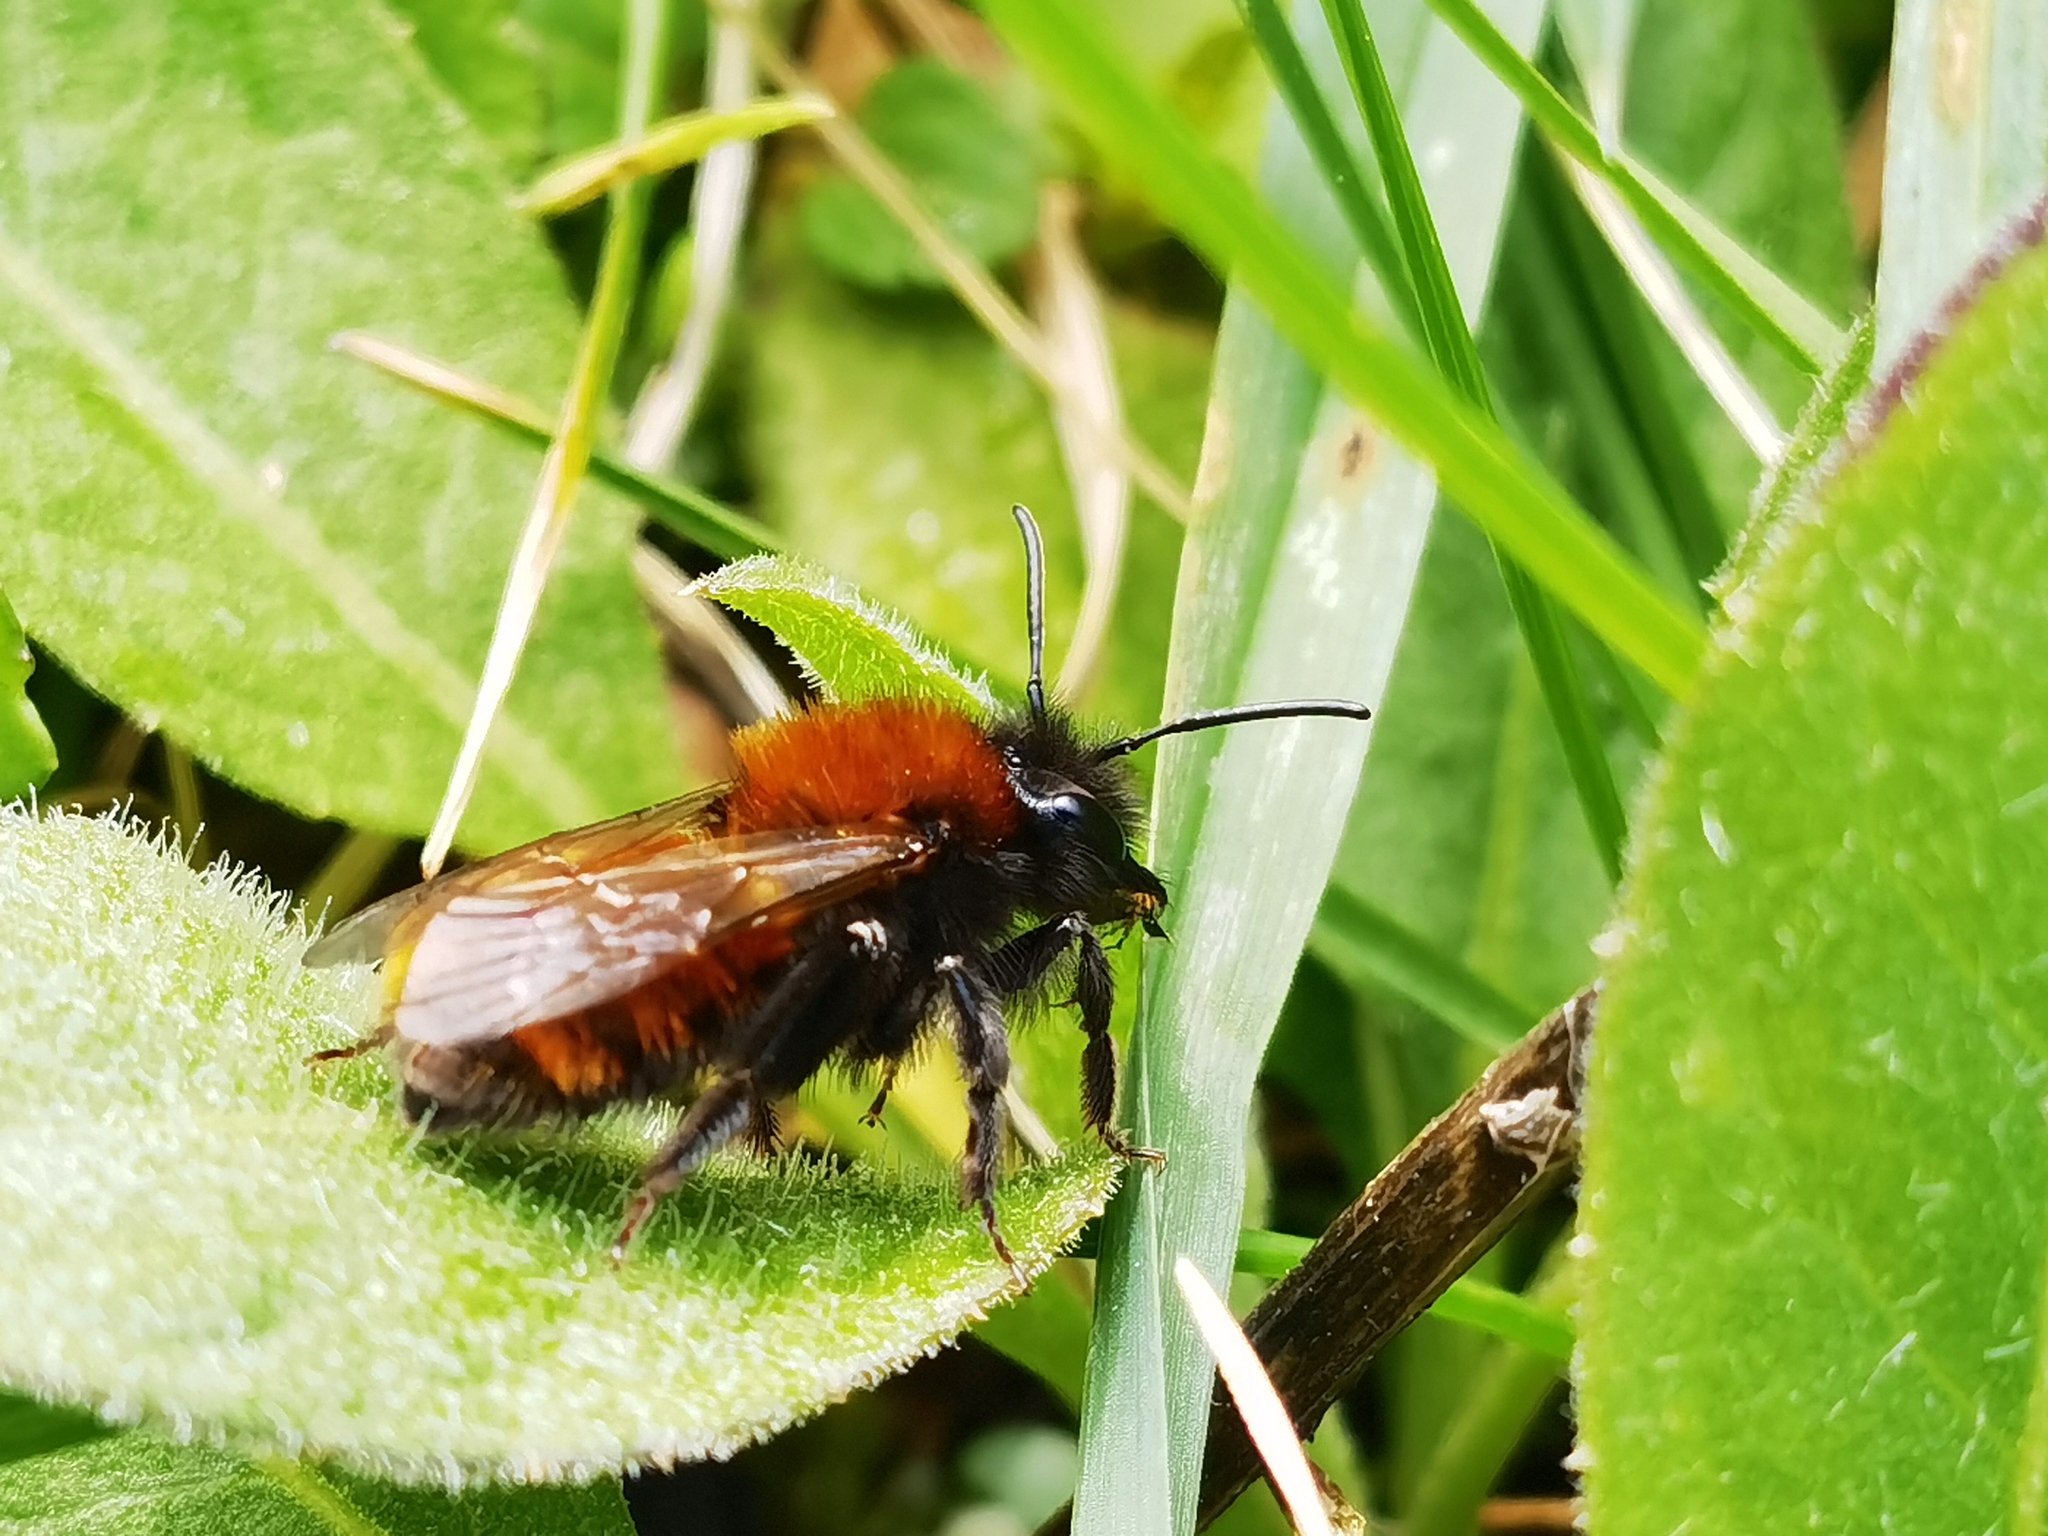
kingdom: Animalia
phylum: Arthropoda
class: Insecta
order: Hymenoptera
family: Andrenidae
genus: Andrena
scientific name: Andrena fulva
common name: Tawny mining bee
